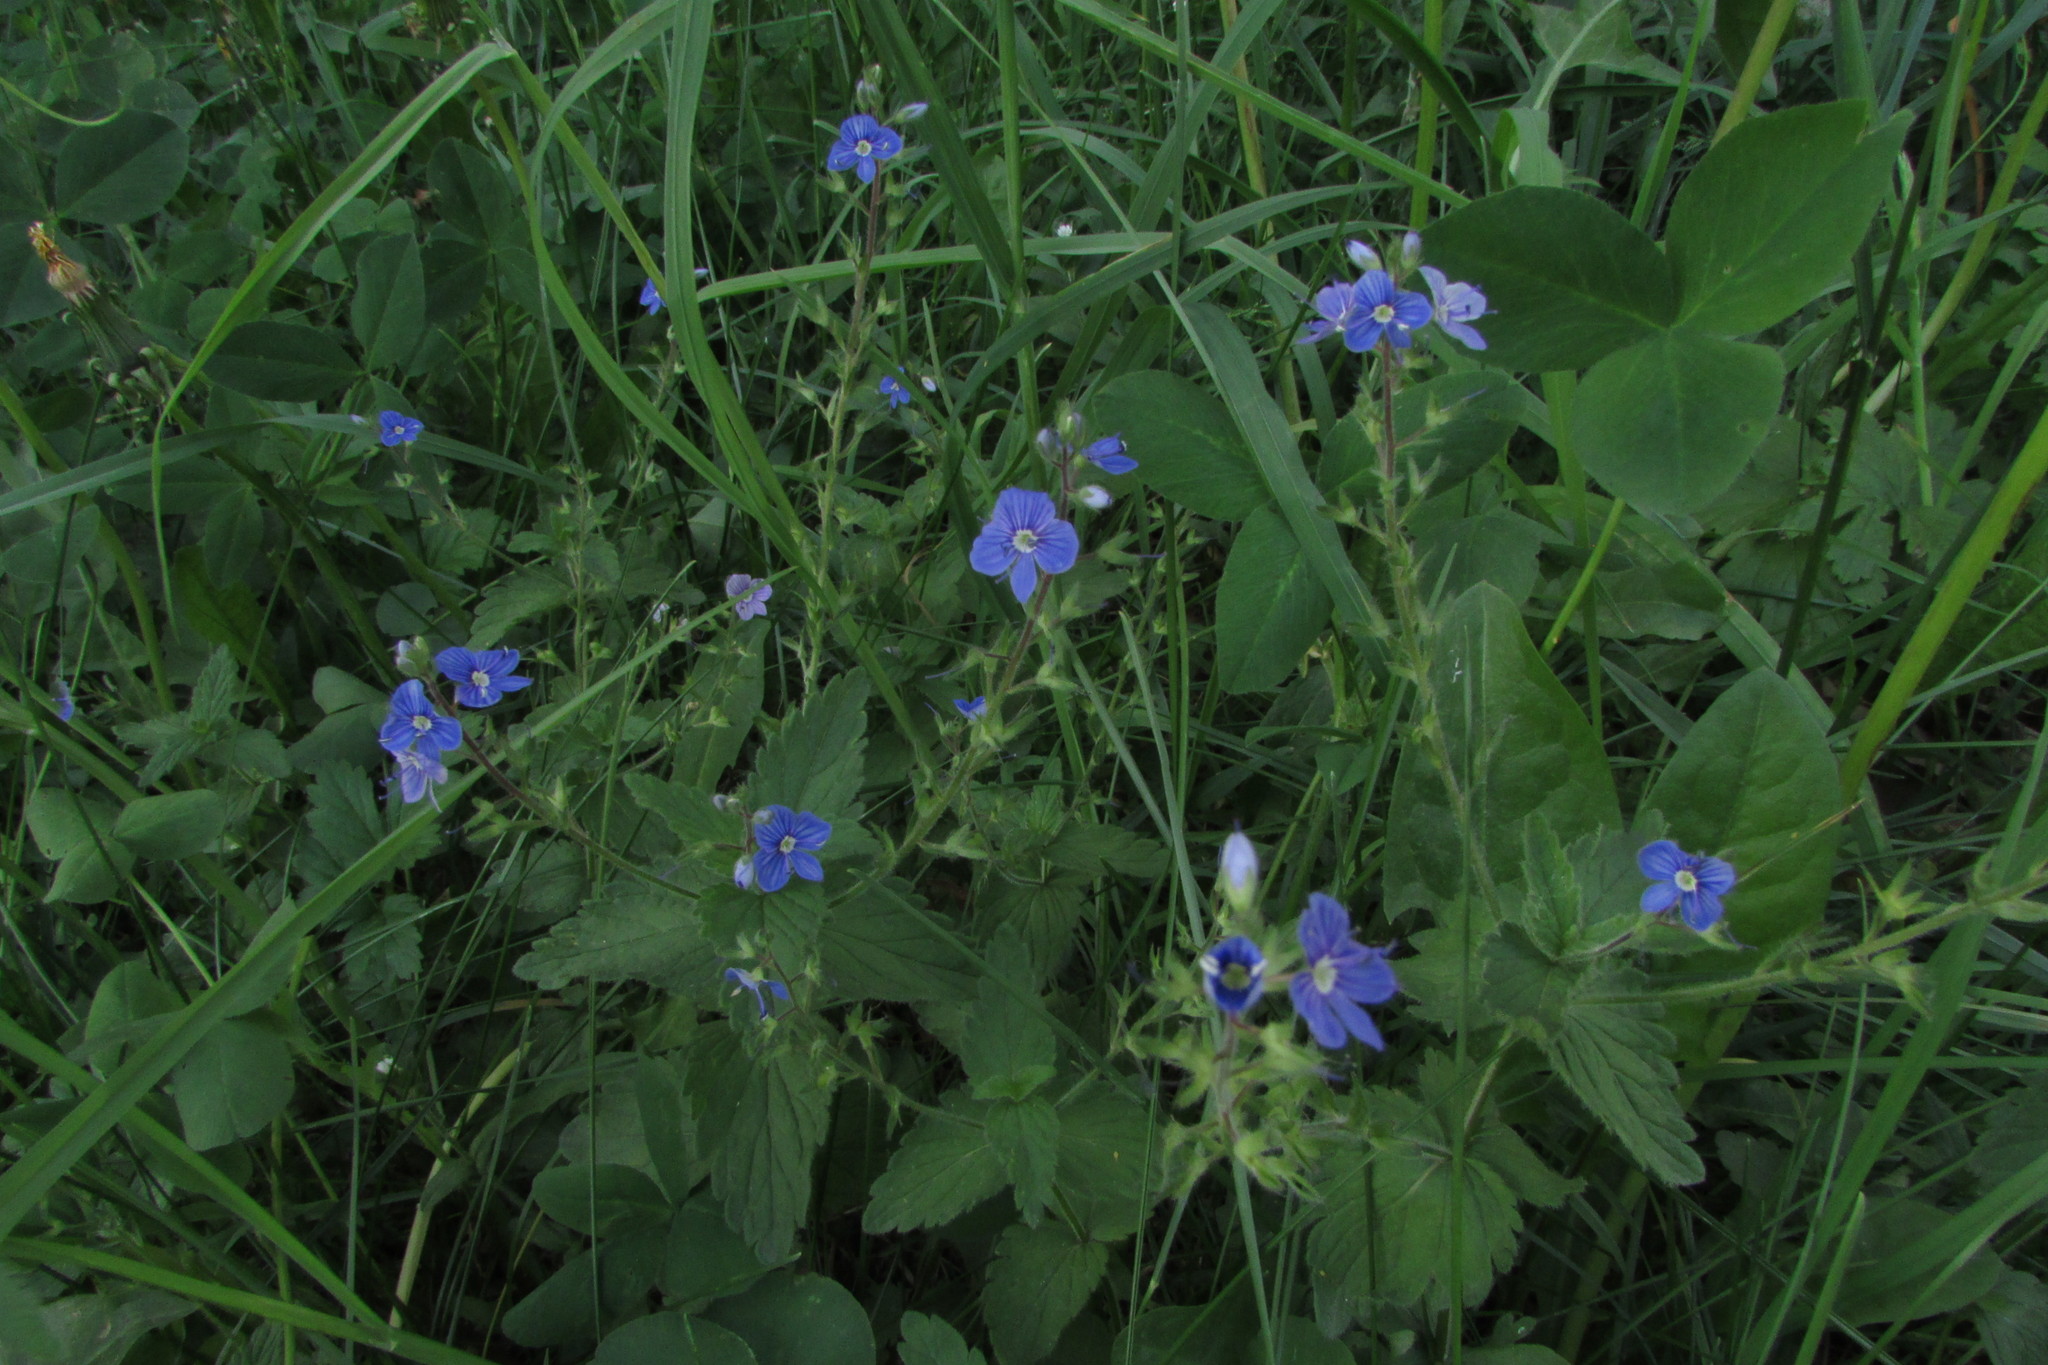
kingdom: Plantae
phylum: Tracheophyta
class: Magnoliopsida
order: Lamiales
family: Plantaginaceae
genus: Veronica
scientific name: Veronica chamaedrys
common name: Germander speedwell
